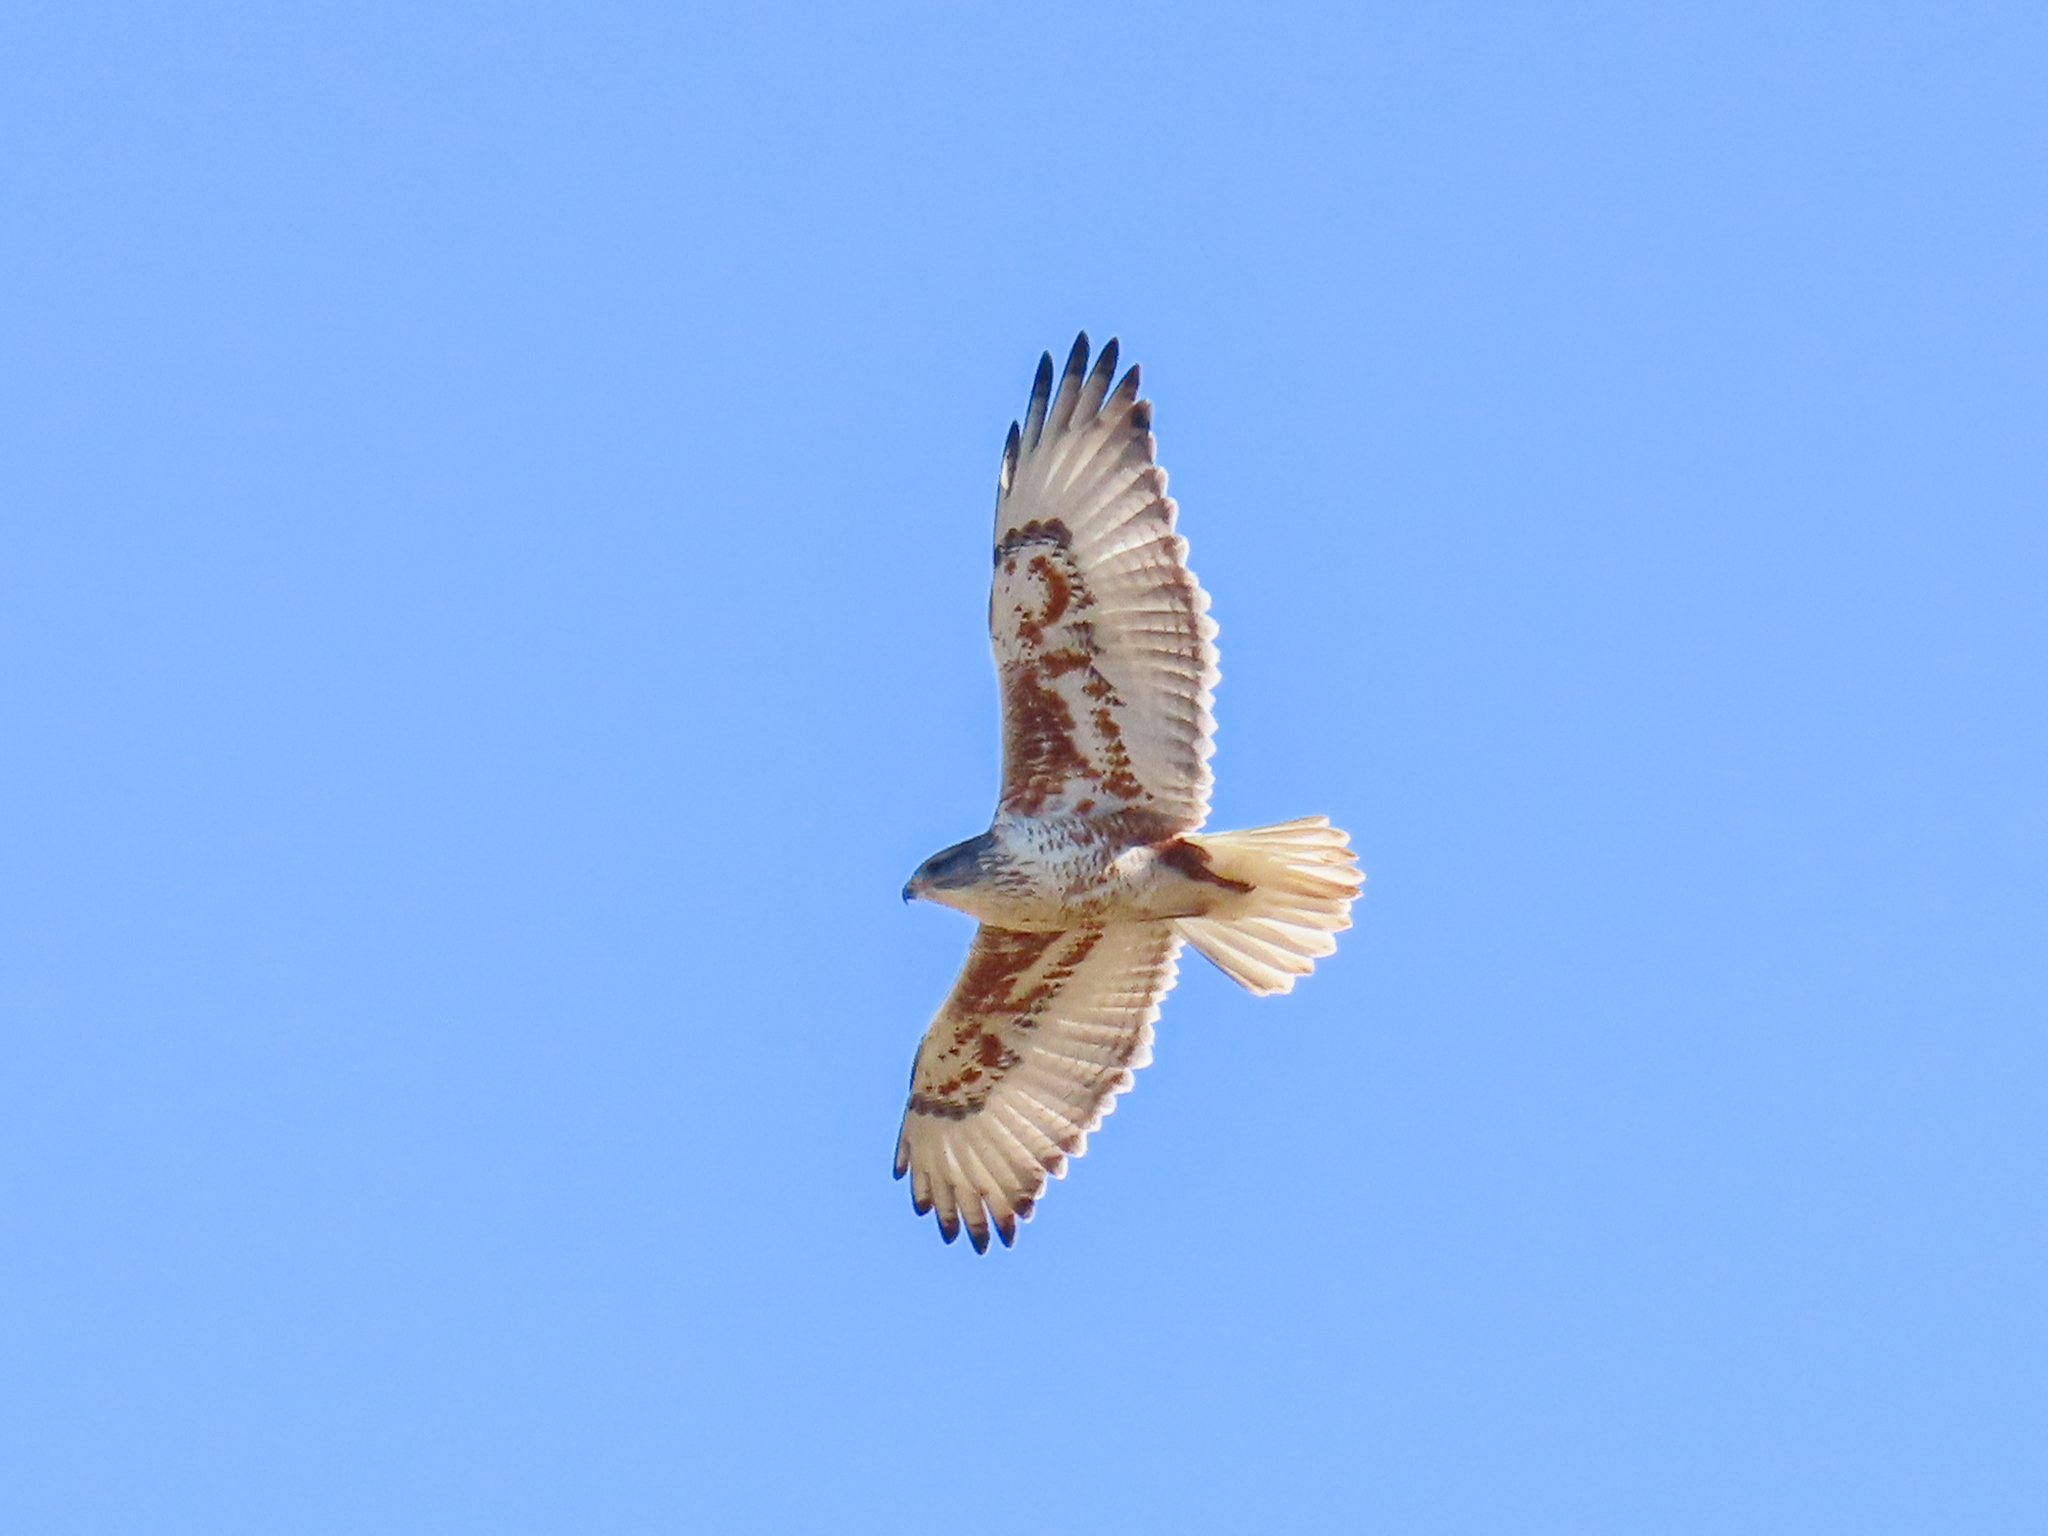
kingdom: Animalia
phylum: Chordata
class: Aves
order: Accipitriformes
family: Accipitridae
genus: Buteo
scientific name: Buteo regalis
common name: Ferruginous hawk
